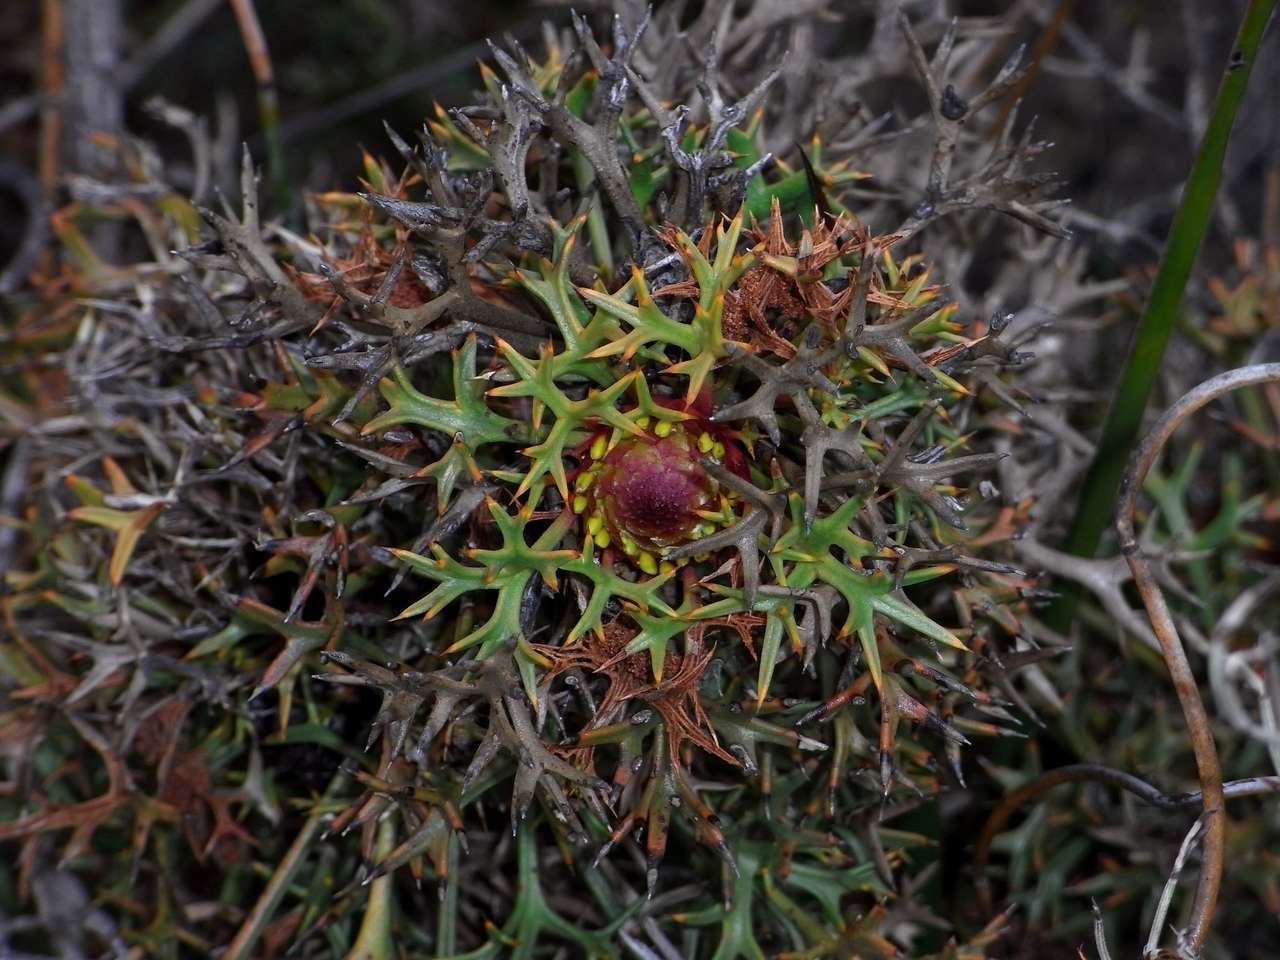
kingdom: Plantae
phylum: Tracheophyta
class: Magnoliopsida
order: Proteales
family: Proteaceae
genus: Isopogon
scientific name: Isopogon ceratophyllus
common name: Horny cone-bush
